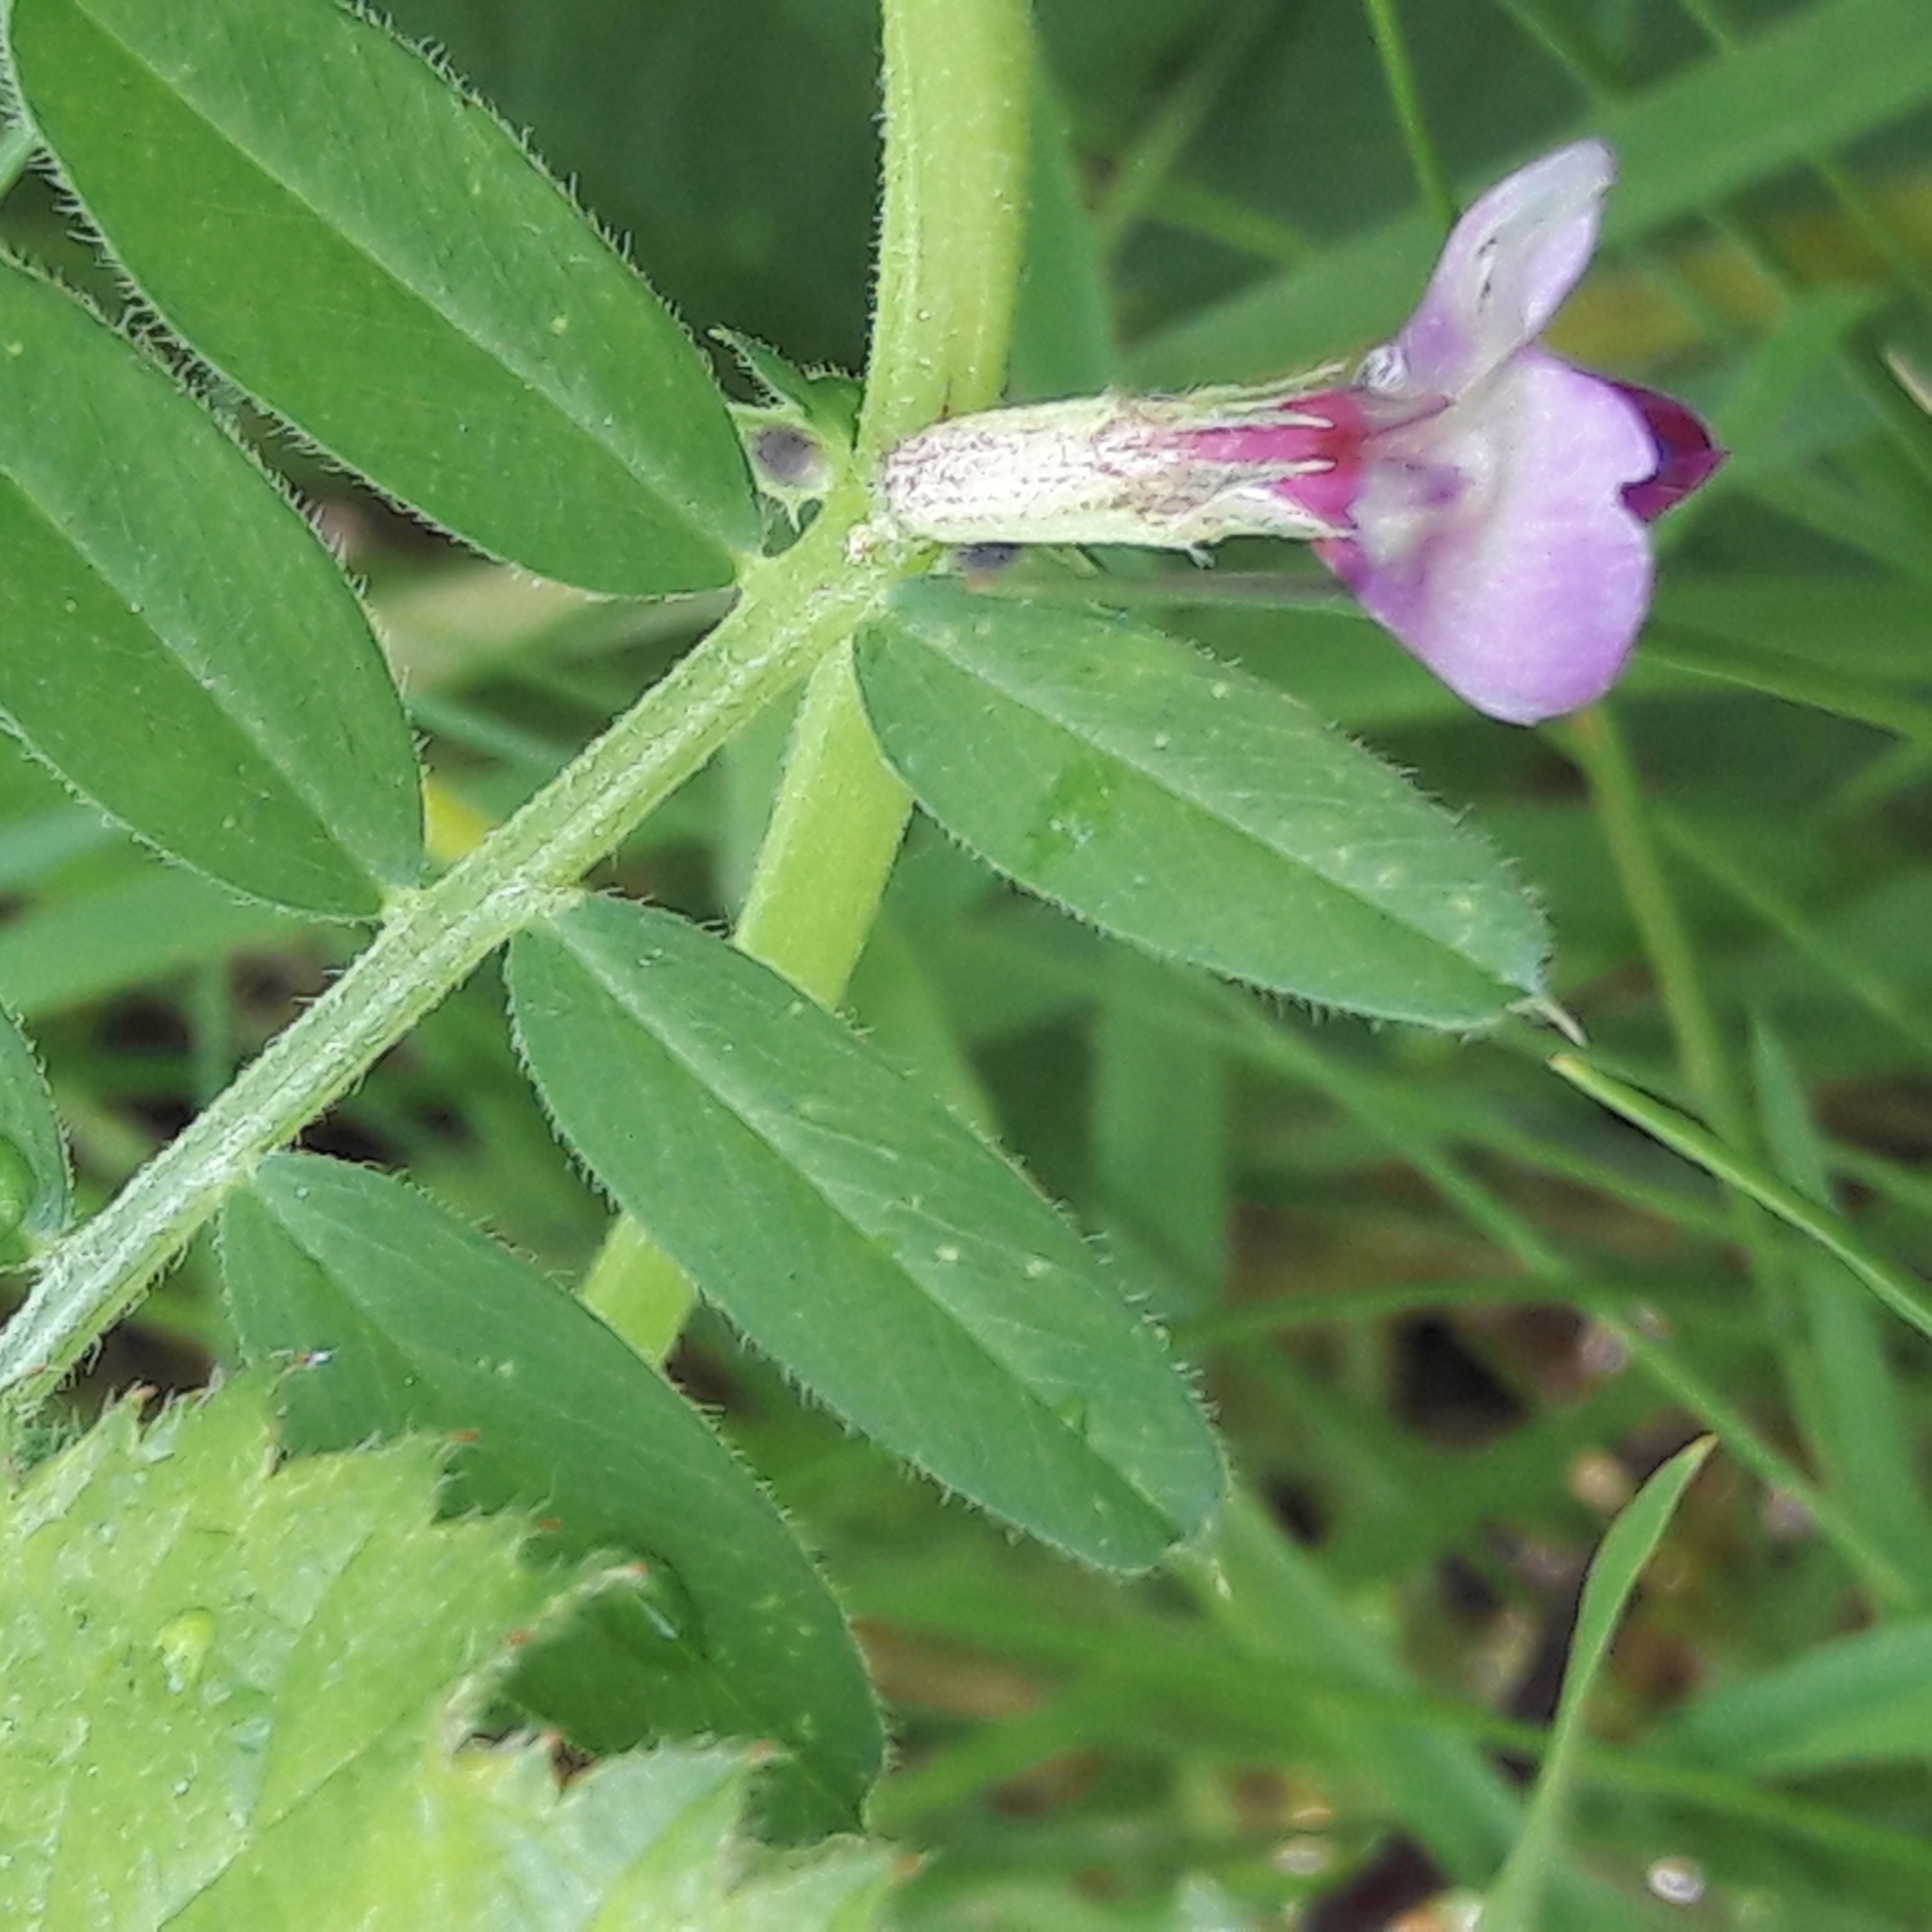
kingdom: Plantae
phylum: Tracheophyta
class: Magnoliopsida
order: Fabales
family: Fabaceae
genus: Vicia
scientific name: Vicia sativa
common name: Garden vetch
